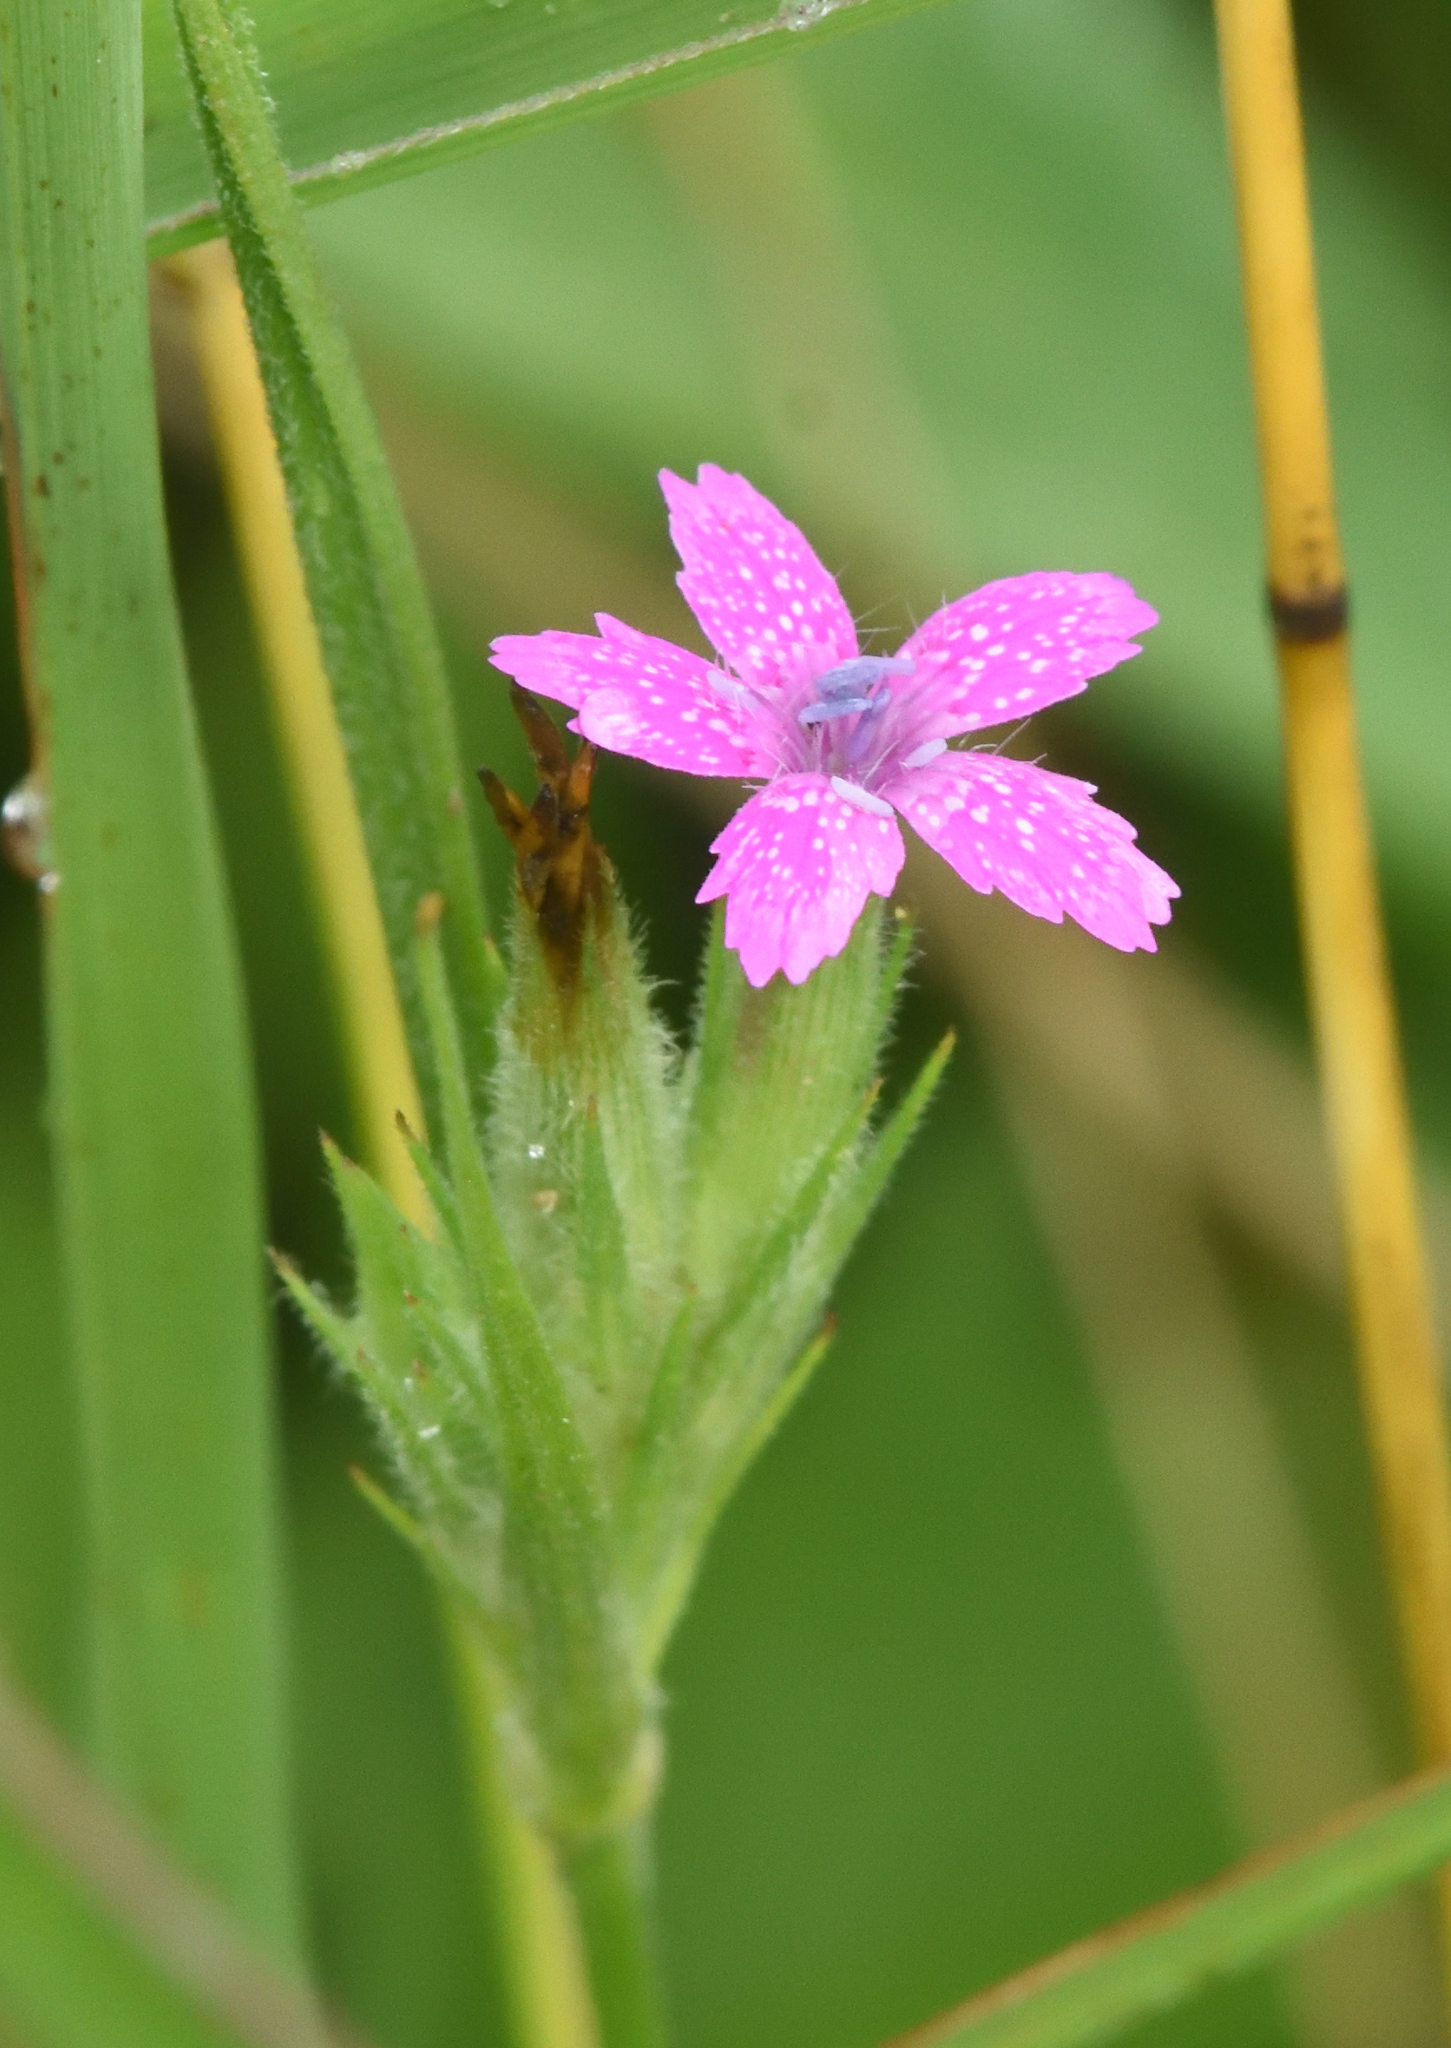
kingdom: Plantae
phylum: Tracheophyta
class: Magnoliopsida
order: Caryophyllales
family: Caryophyllaceae
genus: Dianthus
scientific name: Dianthus armeria
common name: Deptford pink
